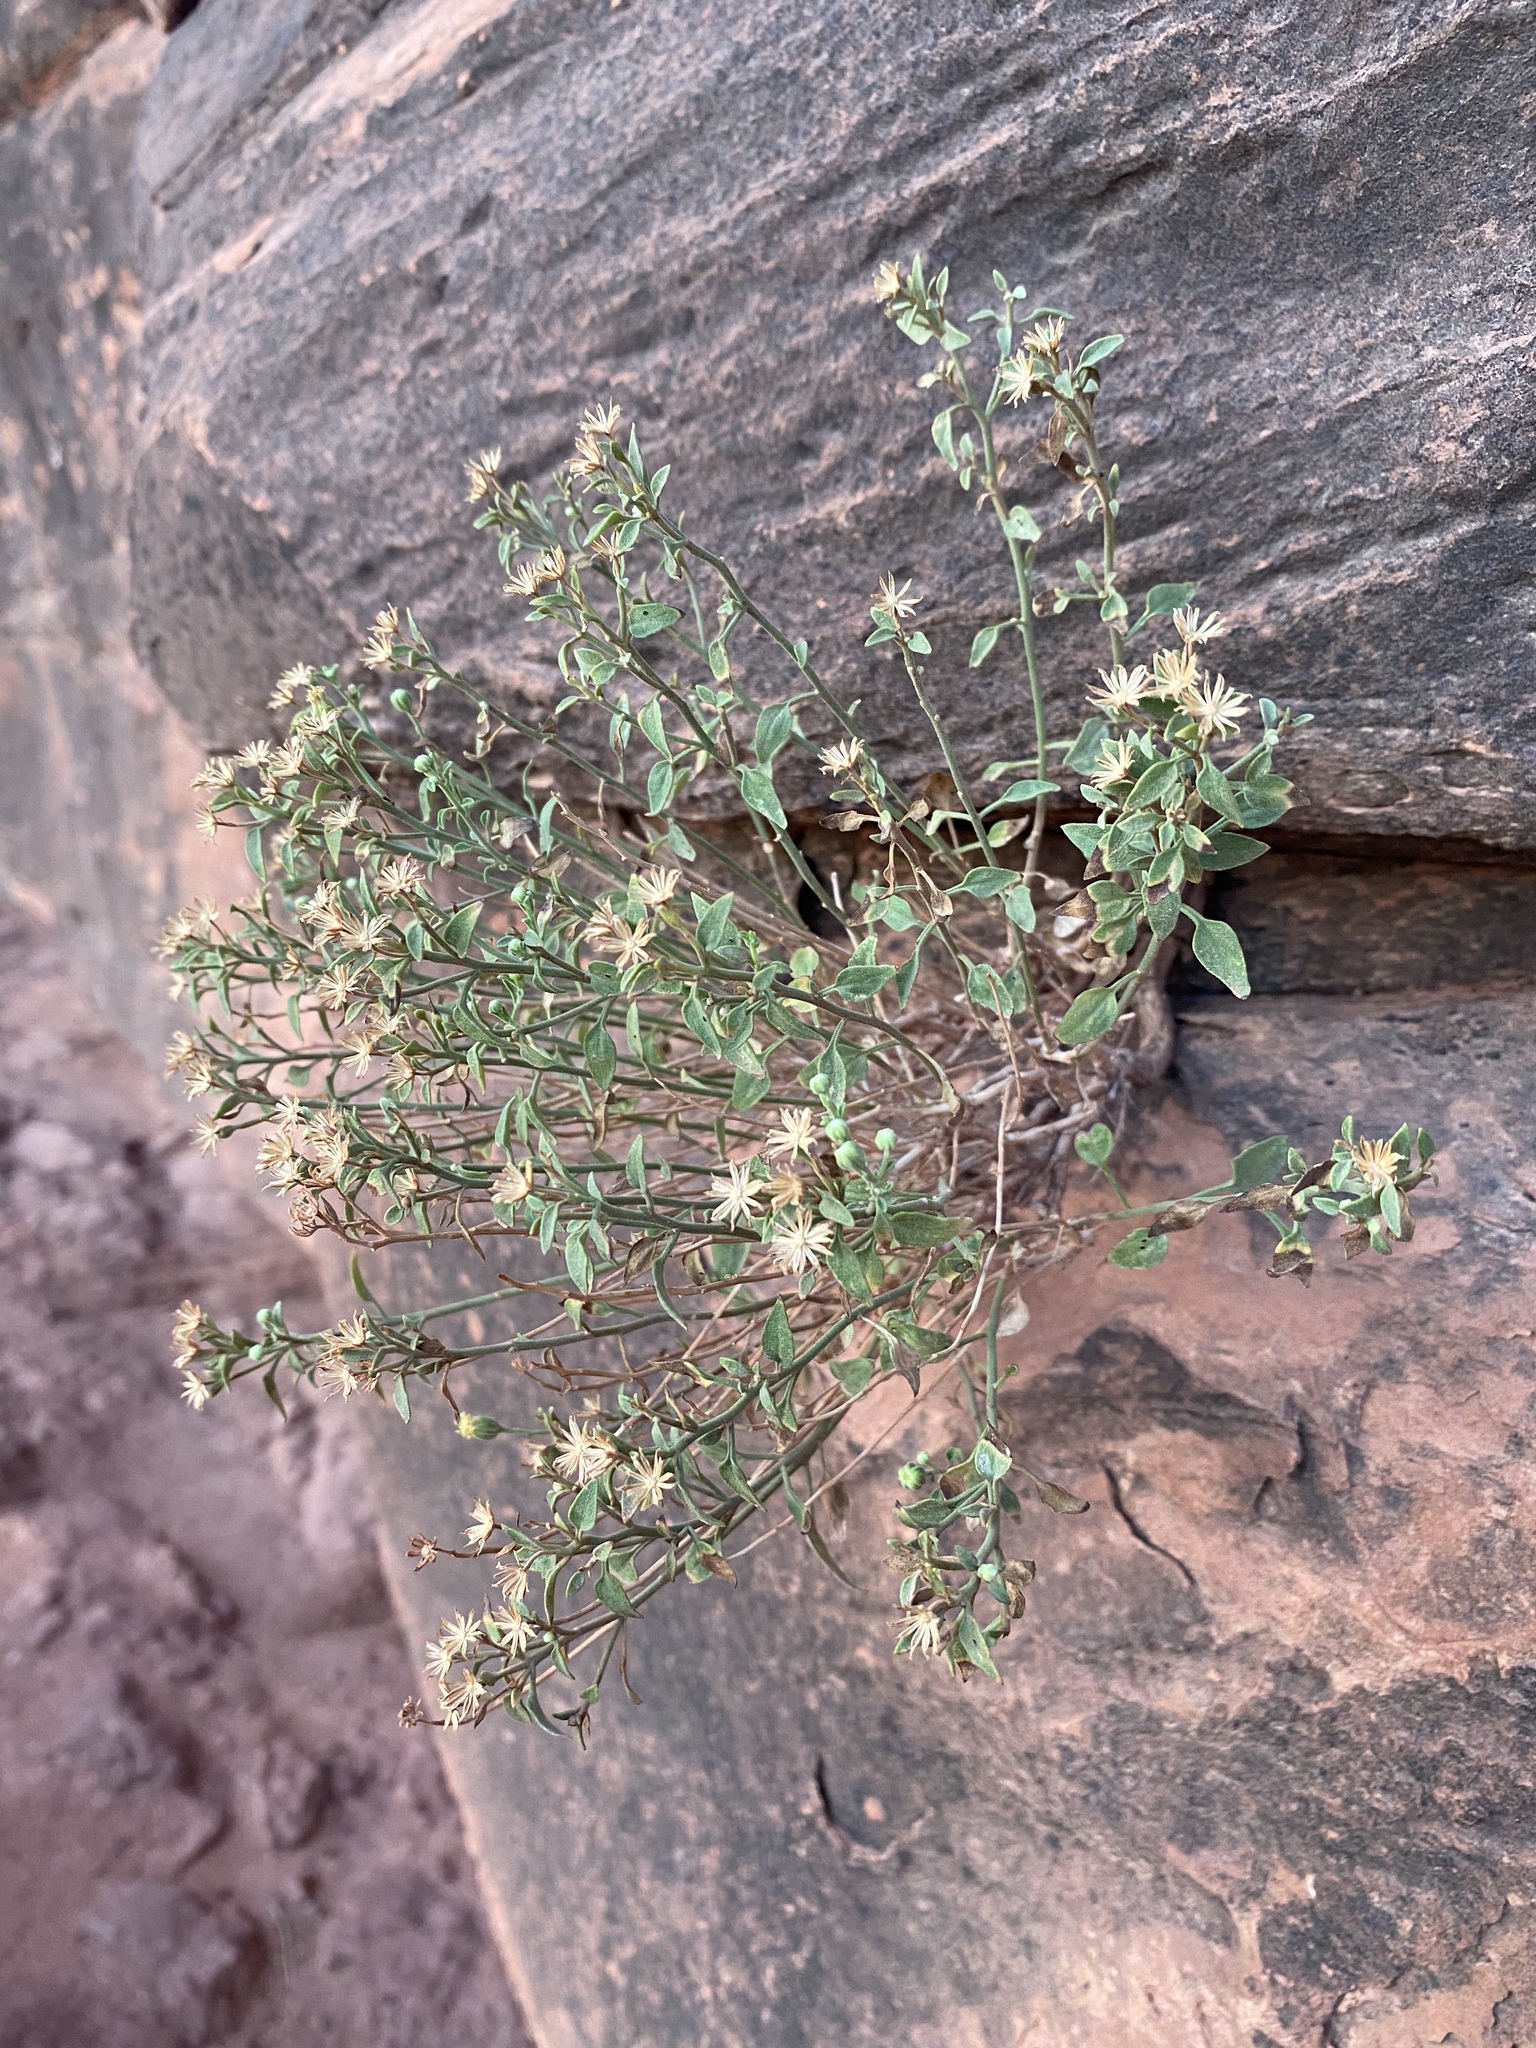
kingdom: Plantae
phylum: Tracheophyta
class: Magnoliopsida
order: Asterales
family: Asteraceae
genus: Laphamia
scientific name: Laphamia congesta
